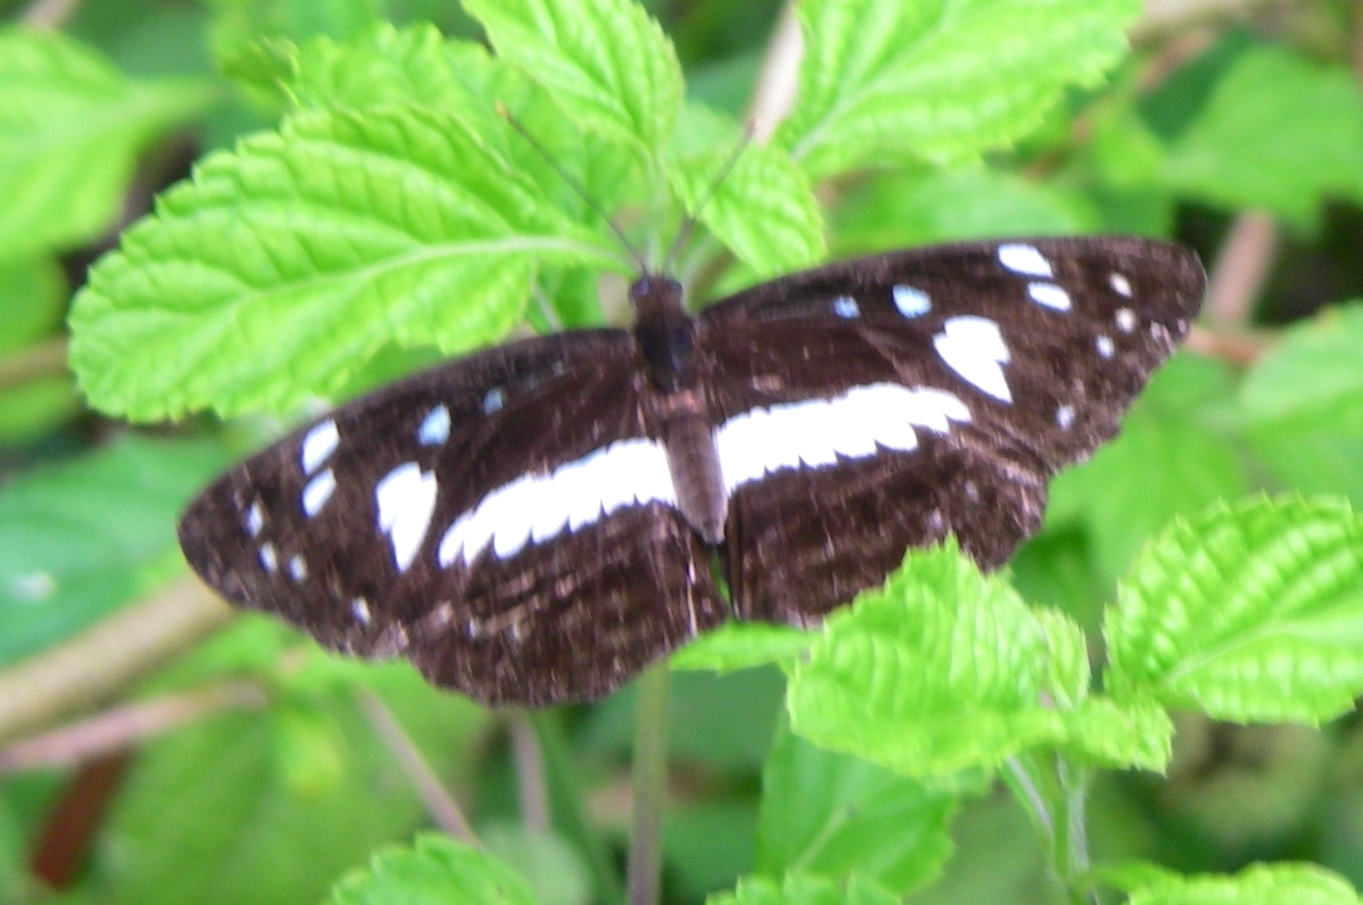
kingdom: Animalia
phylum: Arthropoda
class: Insecta
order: Lepidoptera
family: Nymphalidae
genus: Neptis
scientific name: Neptis brebissonii
